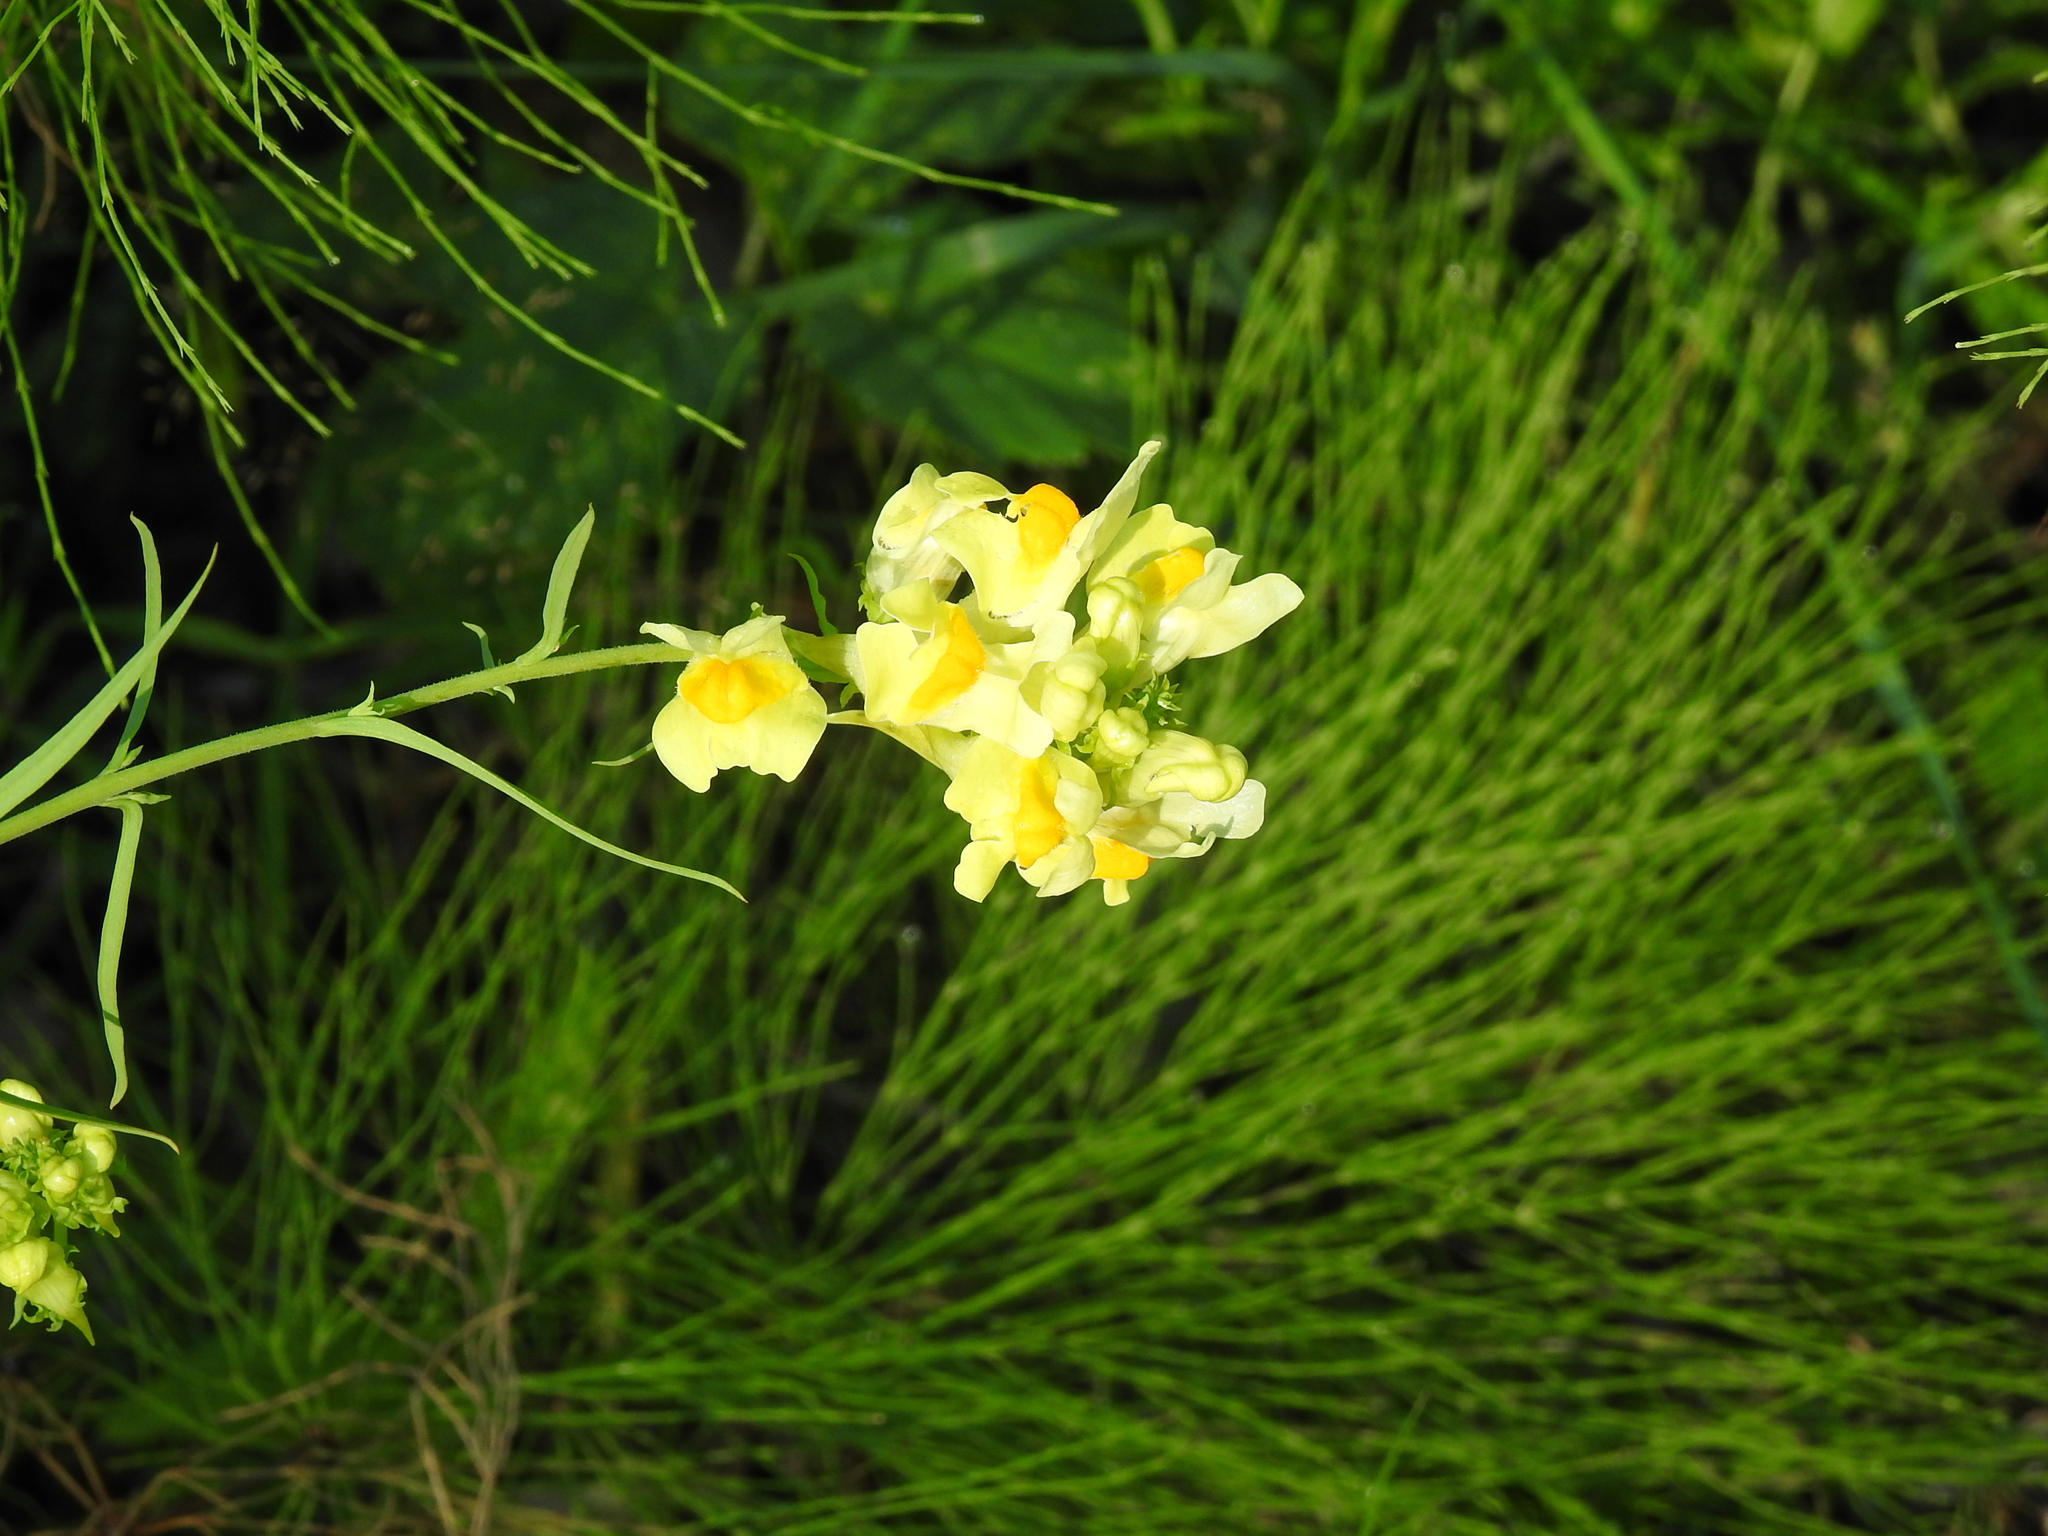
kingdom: Plantae
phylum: Tracheophyta
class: Magnoliopsida
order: Lamiales
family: Plantaginaceae
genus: Linaria
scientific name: Linaria vulgaris
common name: Butter and eggs
